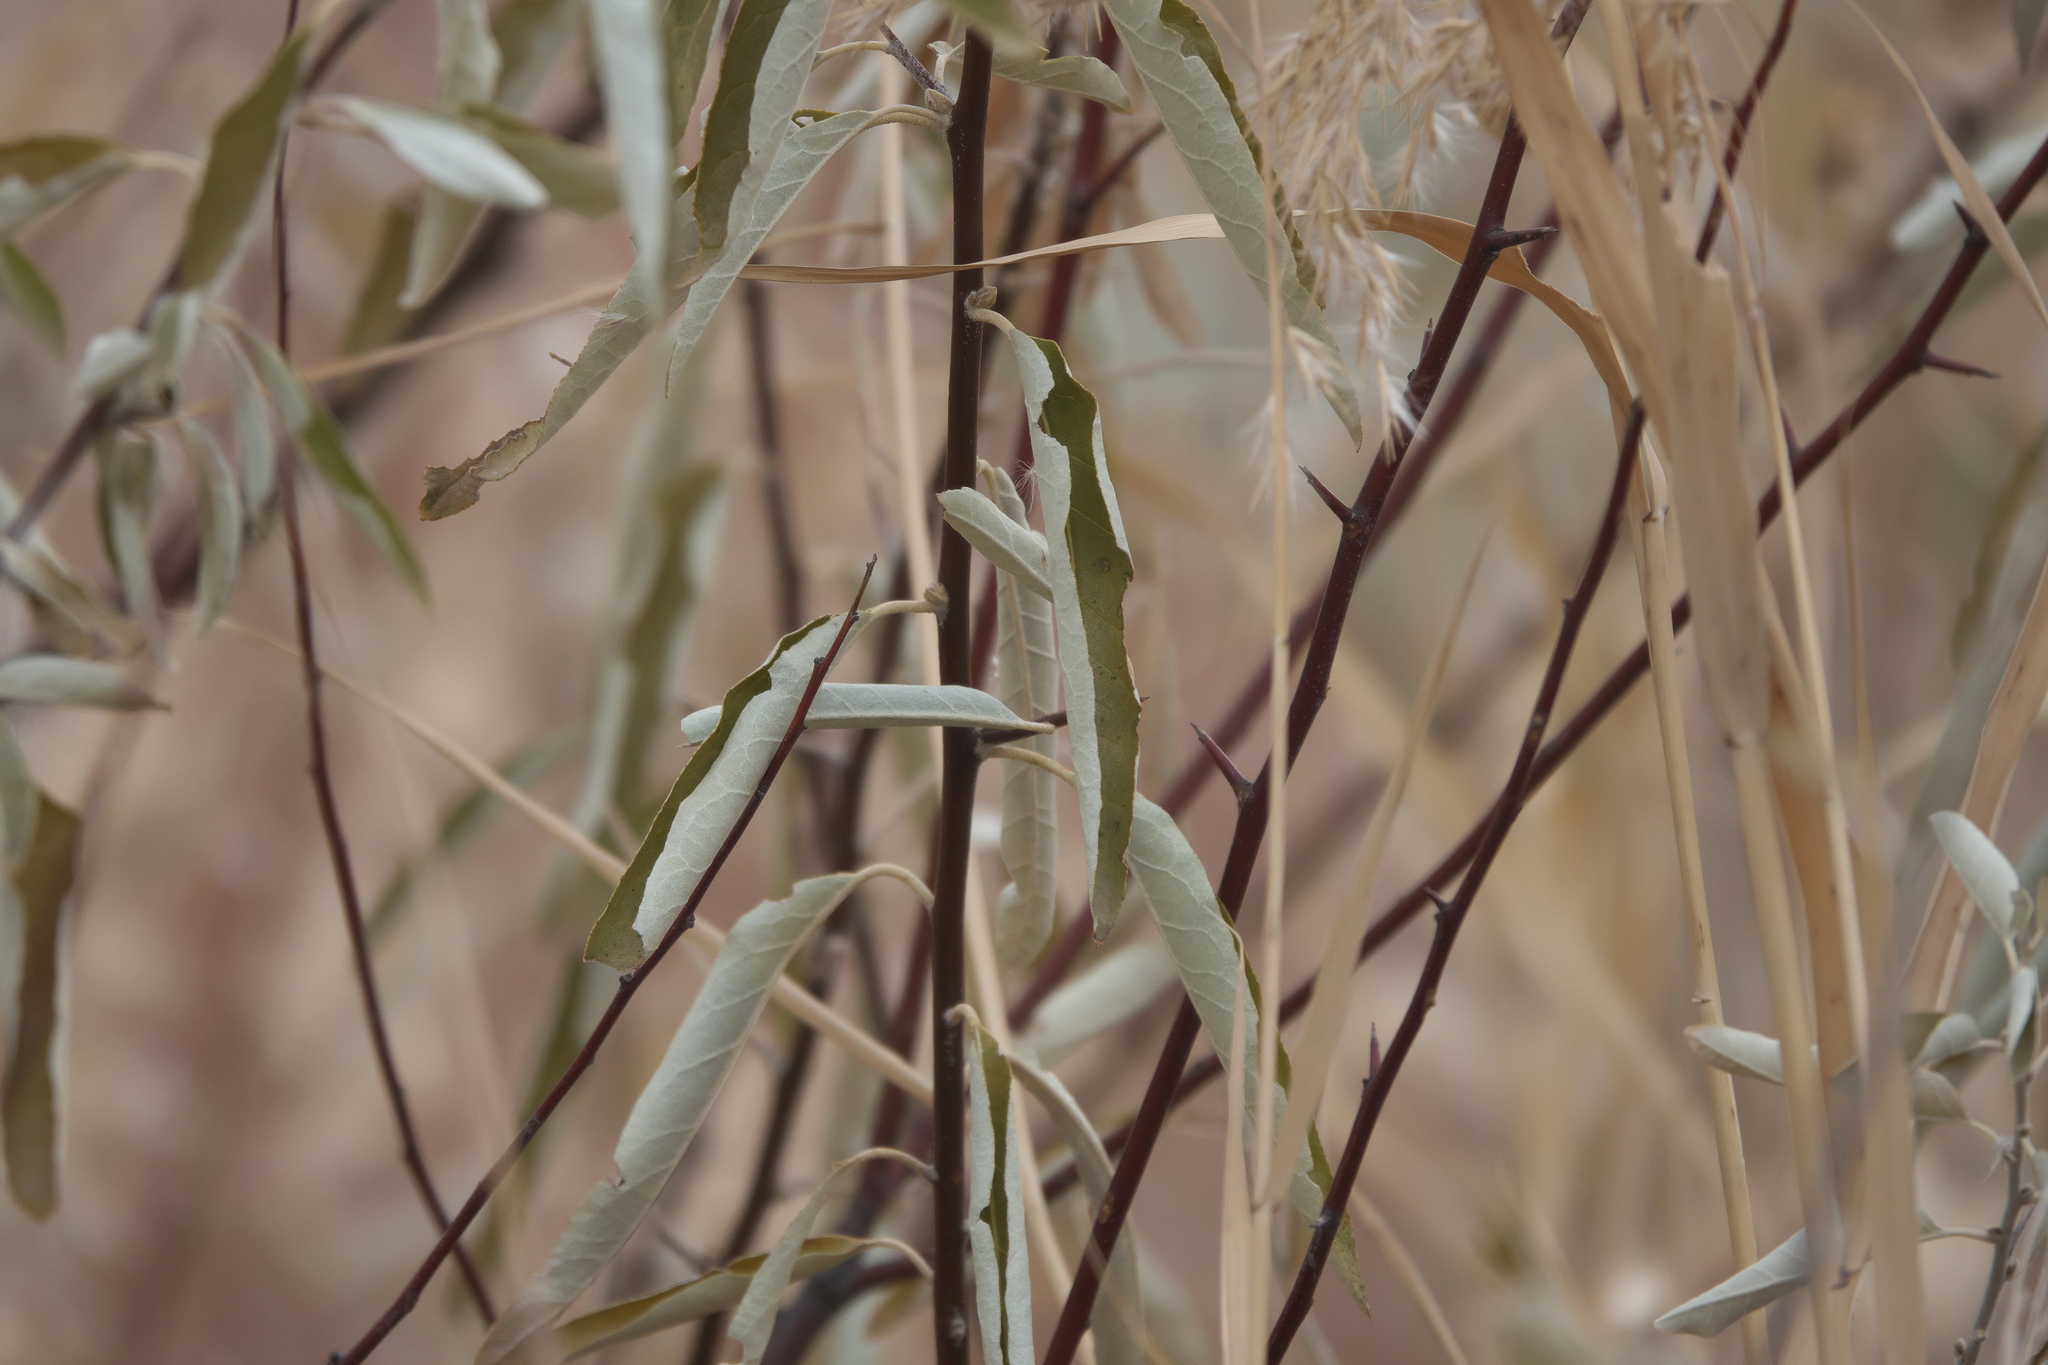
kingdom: Plantae
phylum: Tracheophyta
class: Magnoliopsida
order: Rosales
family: Elaeagnaceae
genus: Elaeagnus
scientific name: Elaeagnus angustifolia
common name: Russian olive
